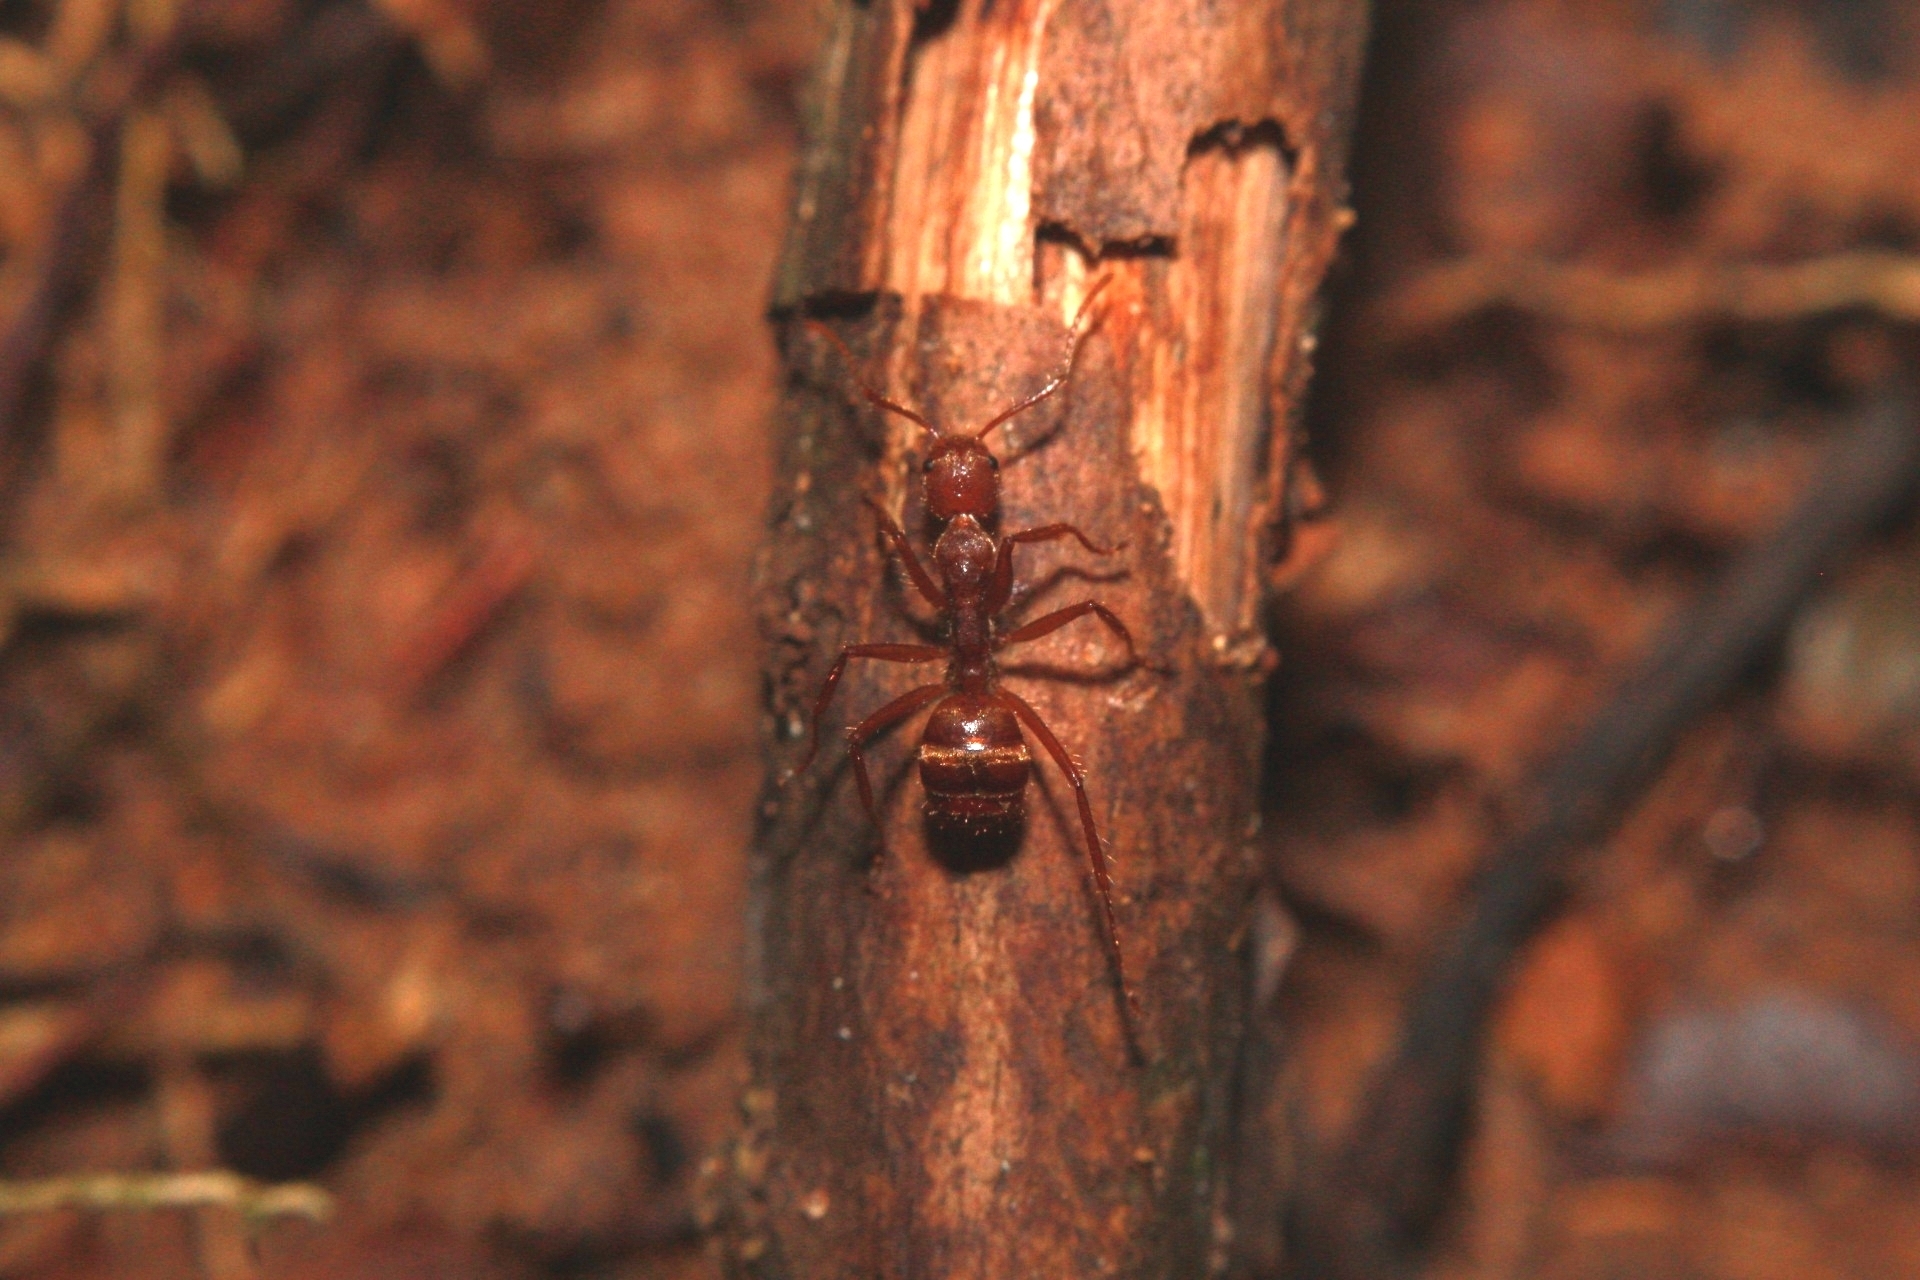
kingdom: Animalia
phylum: Arthropoda
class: Insecta
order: Hymenoptera
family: Formicidae
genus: Dolichoderus
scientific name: Dolichoderus ferrugineus
